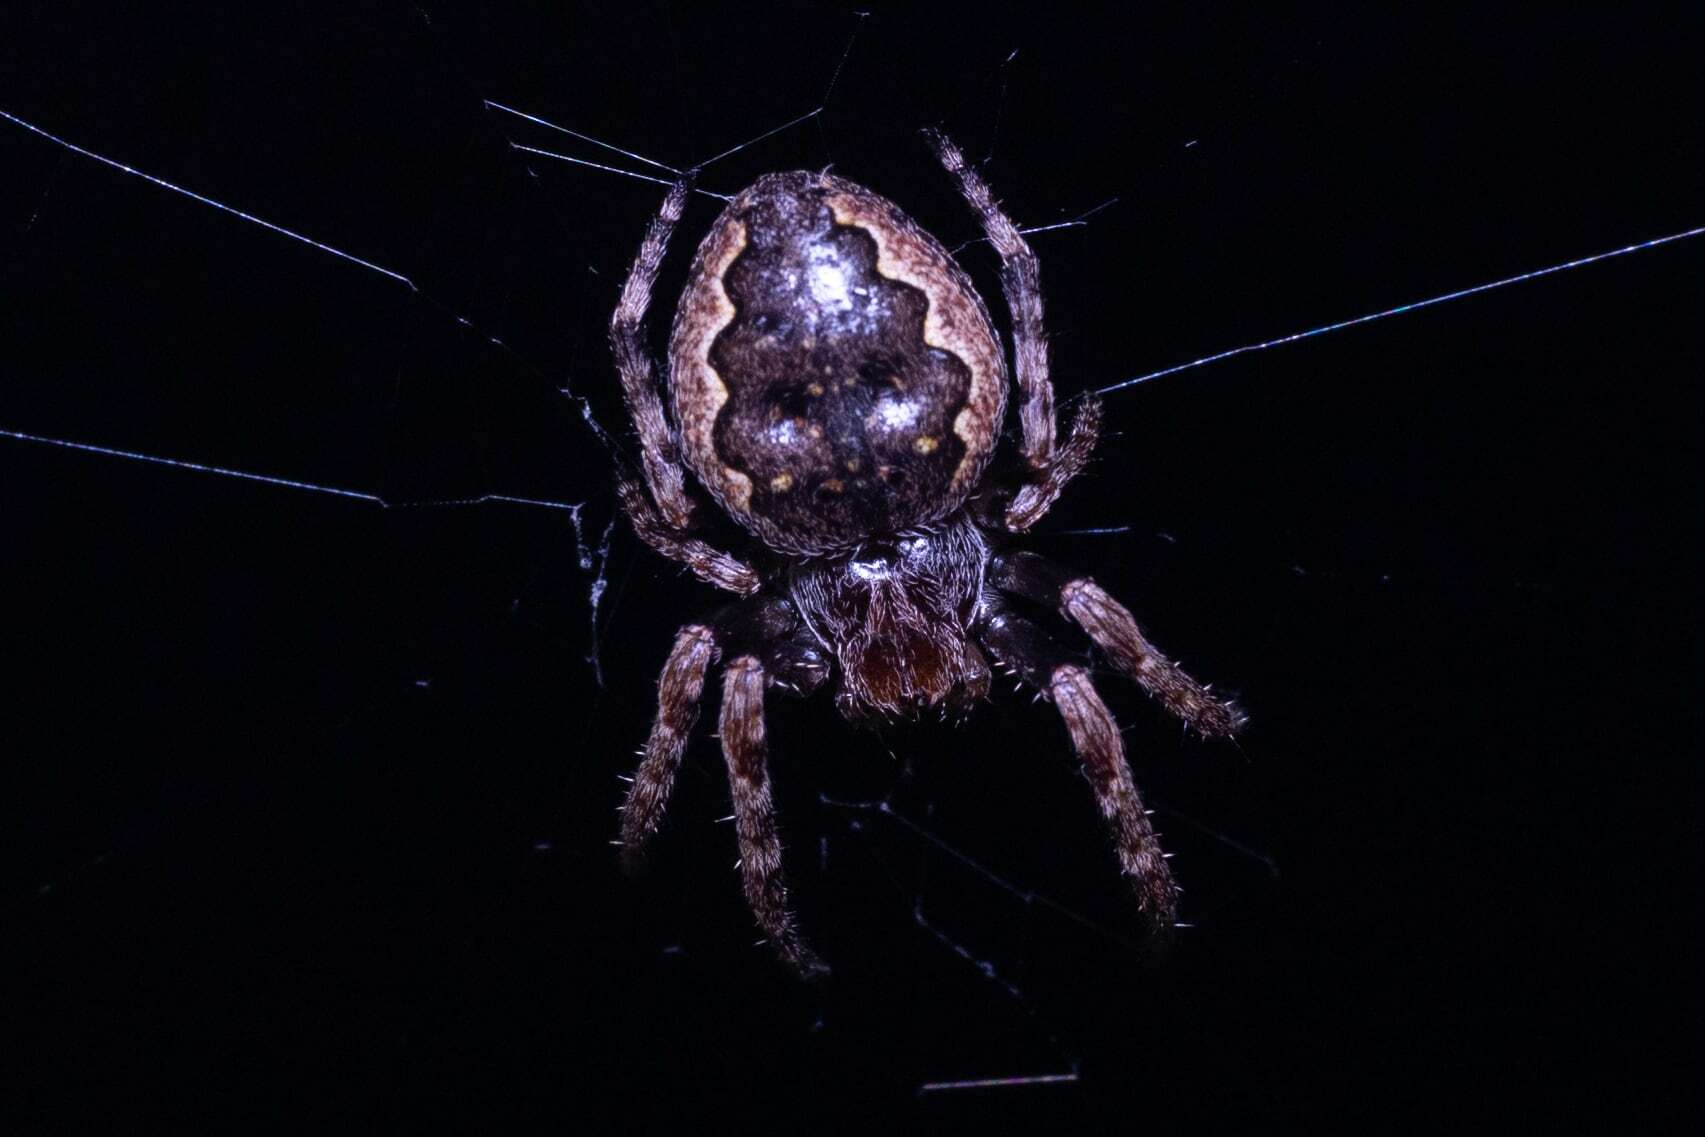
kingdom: Animalia
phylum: Arthropoda
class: Arachnida
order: Araneae
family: Araneidae
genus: Nuctenea
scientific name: Nuctenea umbratica
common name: Toad spider
